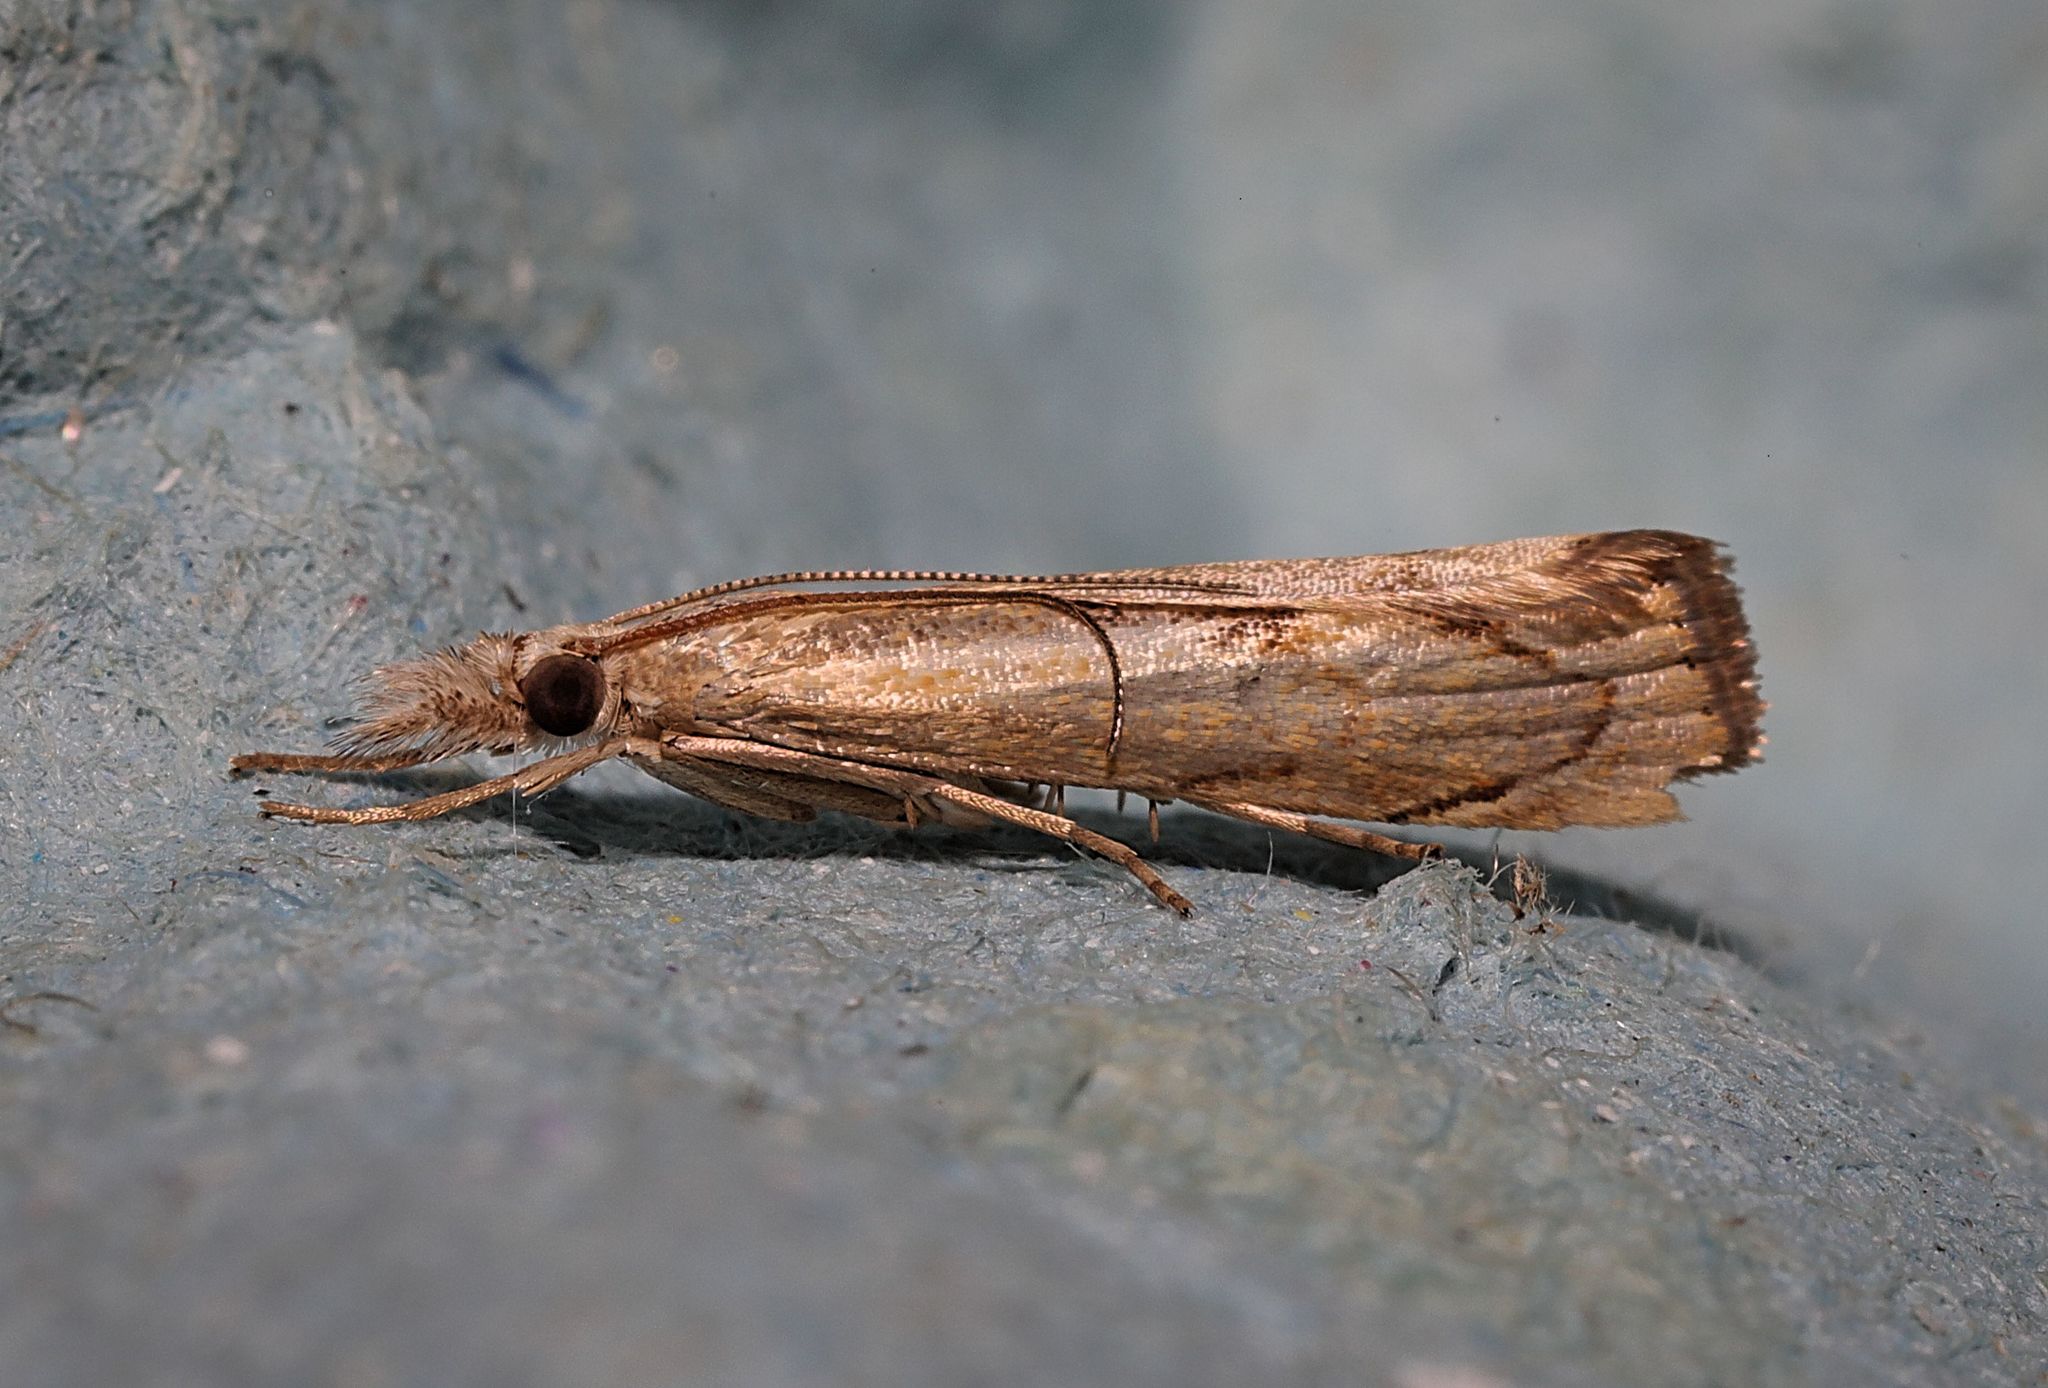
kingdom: Animalia
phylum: Arthropoda
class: Insecta
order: Lepidoptera
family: Crambidae
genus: Agriphila
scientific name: Agriphila geniculea
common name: Elbow-stripe grass-veneer
